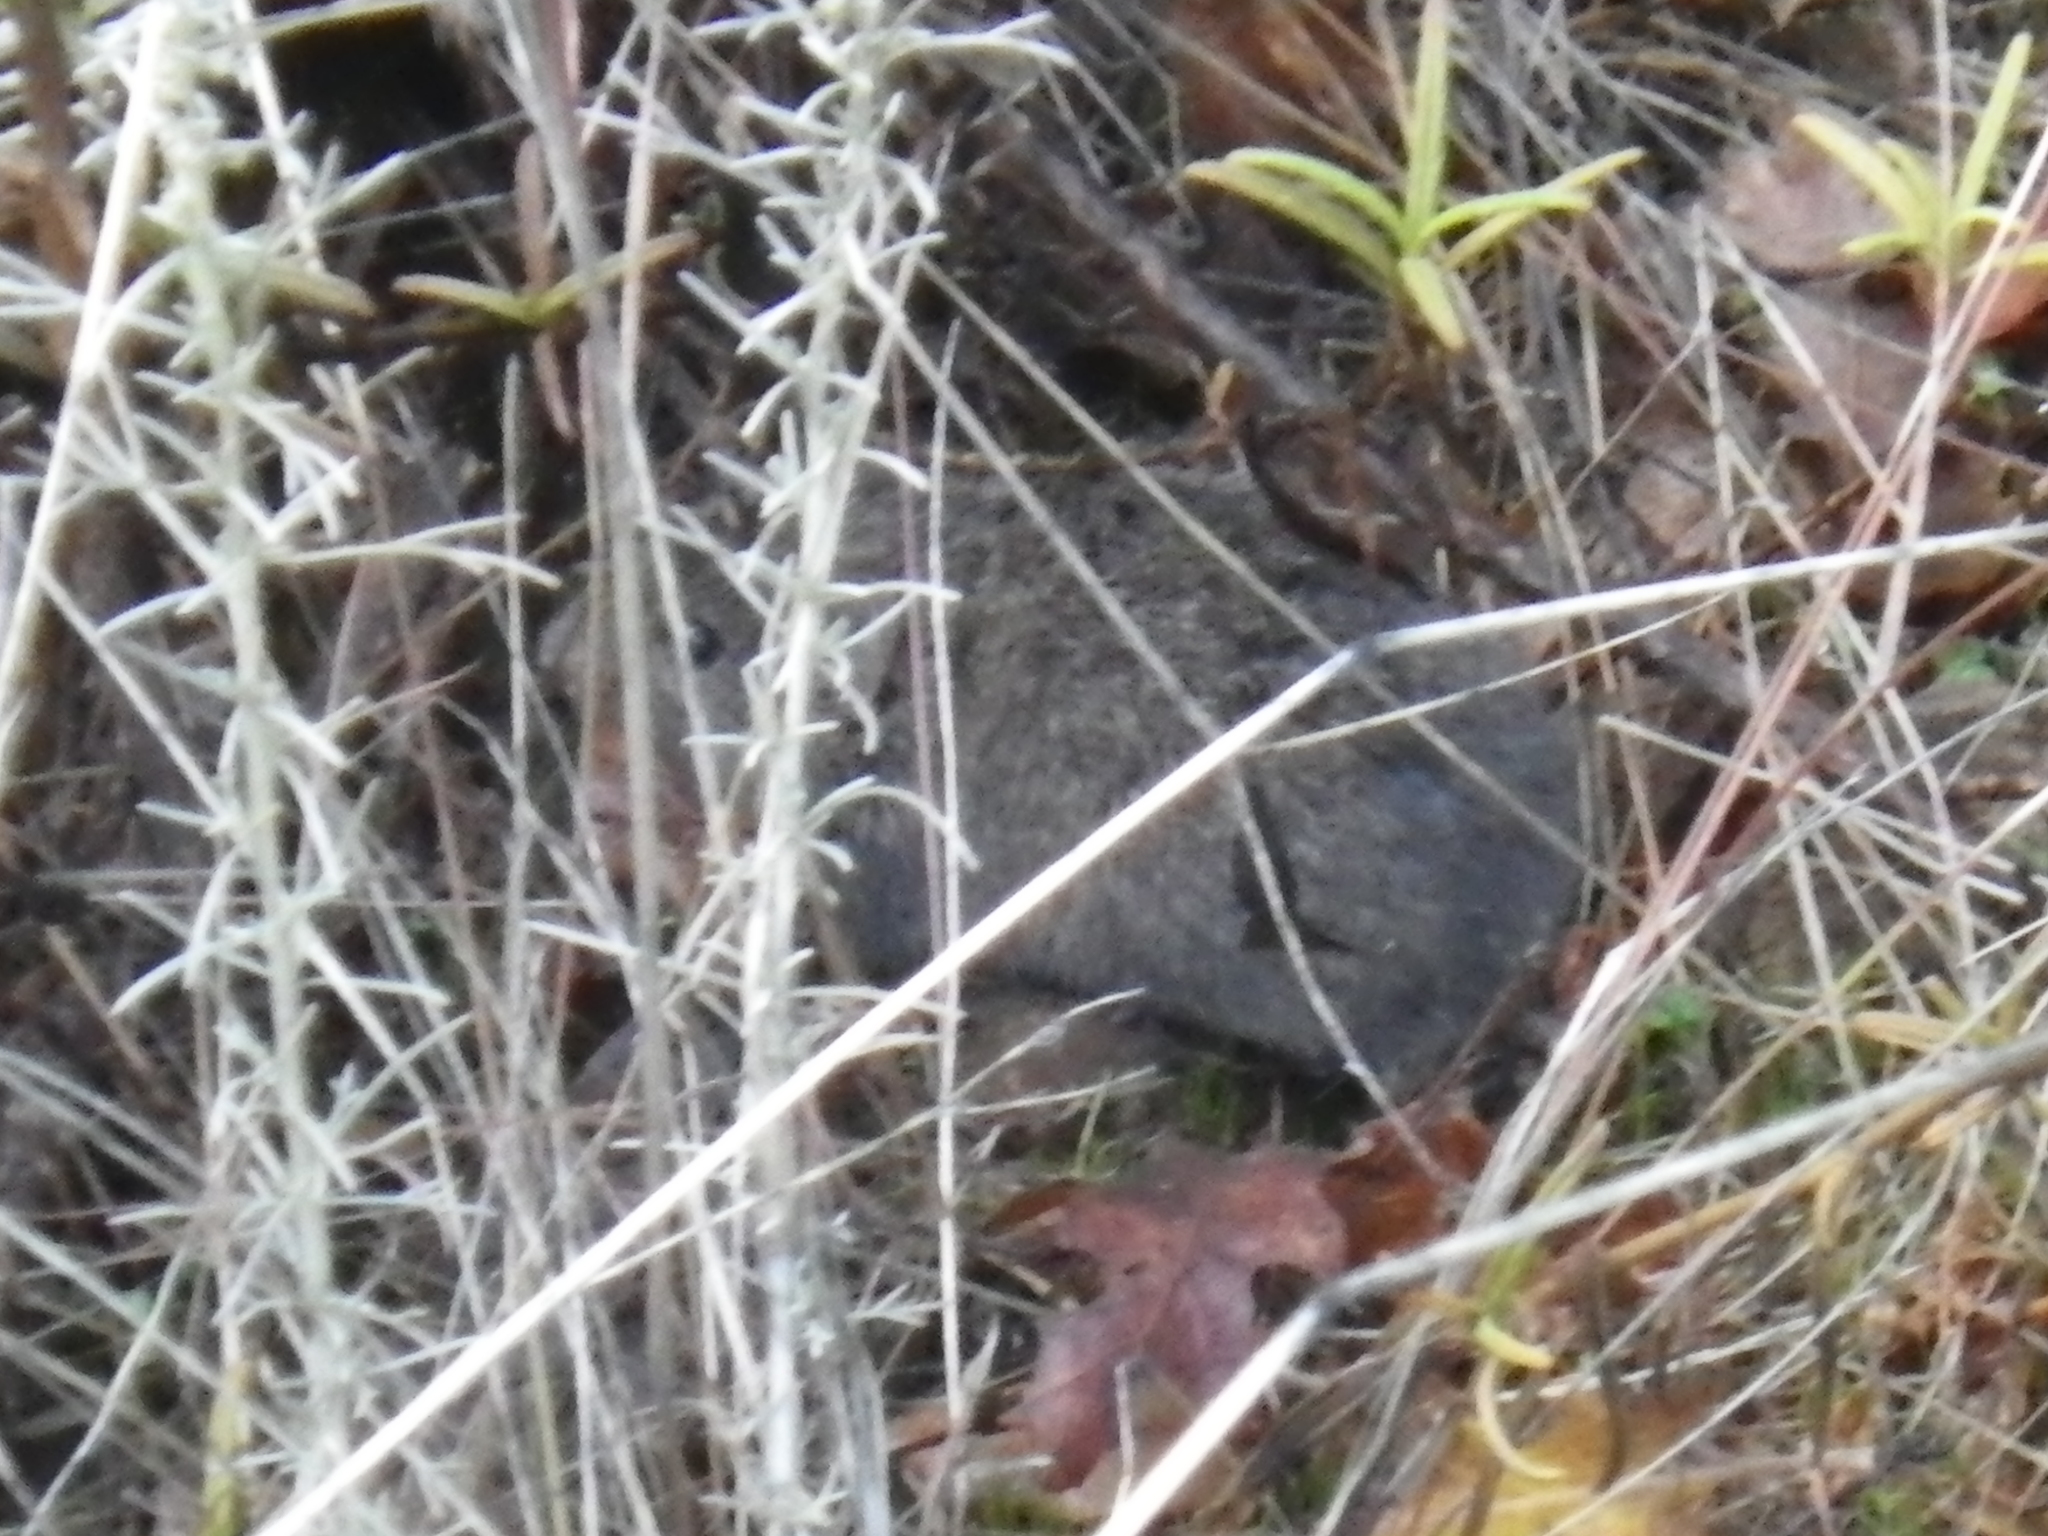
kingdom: Animalia
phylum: Chordata
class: Mammalia
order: Rodentia
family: Cricetidae
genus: Microtus
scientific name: Microtus californicus
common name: California vole
